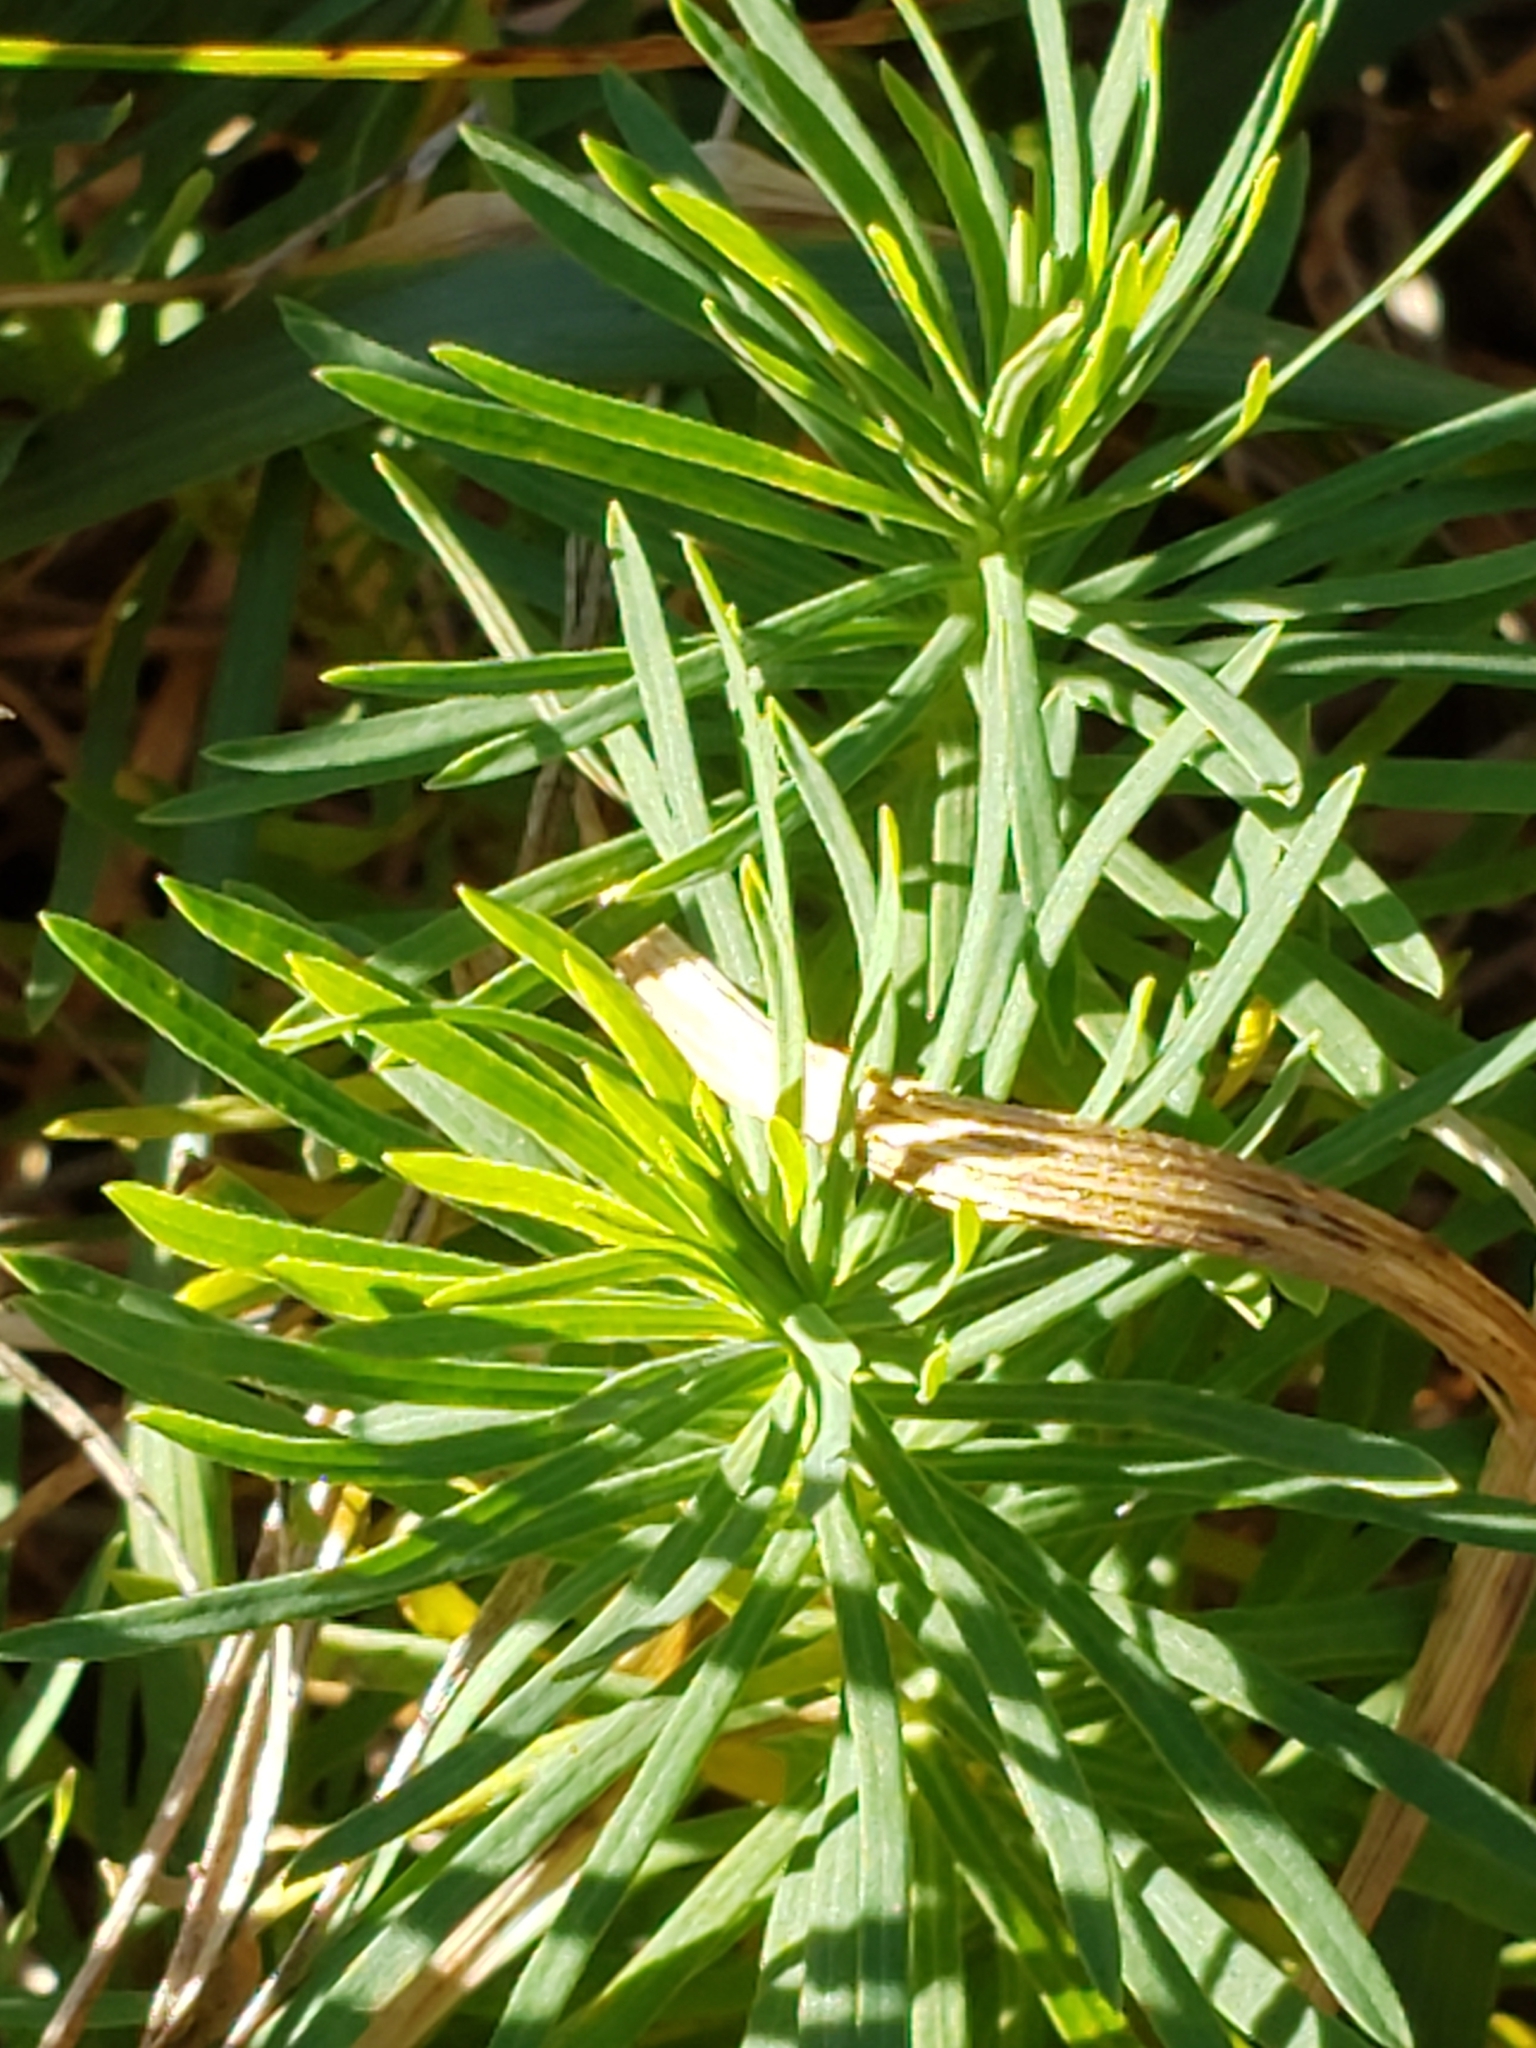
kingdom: Plantae
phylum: Tracheophyta
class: Magnoliopsida
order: Malpighiales
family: Euphorbiaceae
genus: Euphorbia
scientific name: Euphorbia cyparissias
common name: Cypress spurge
